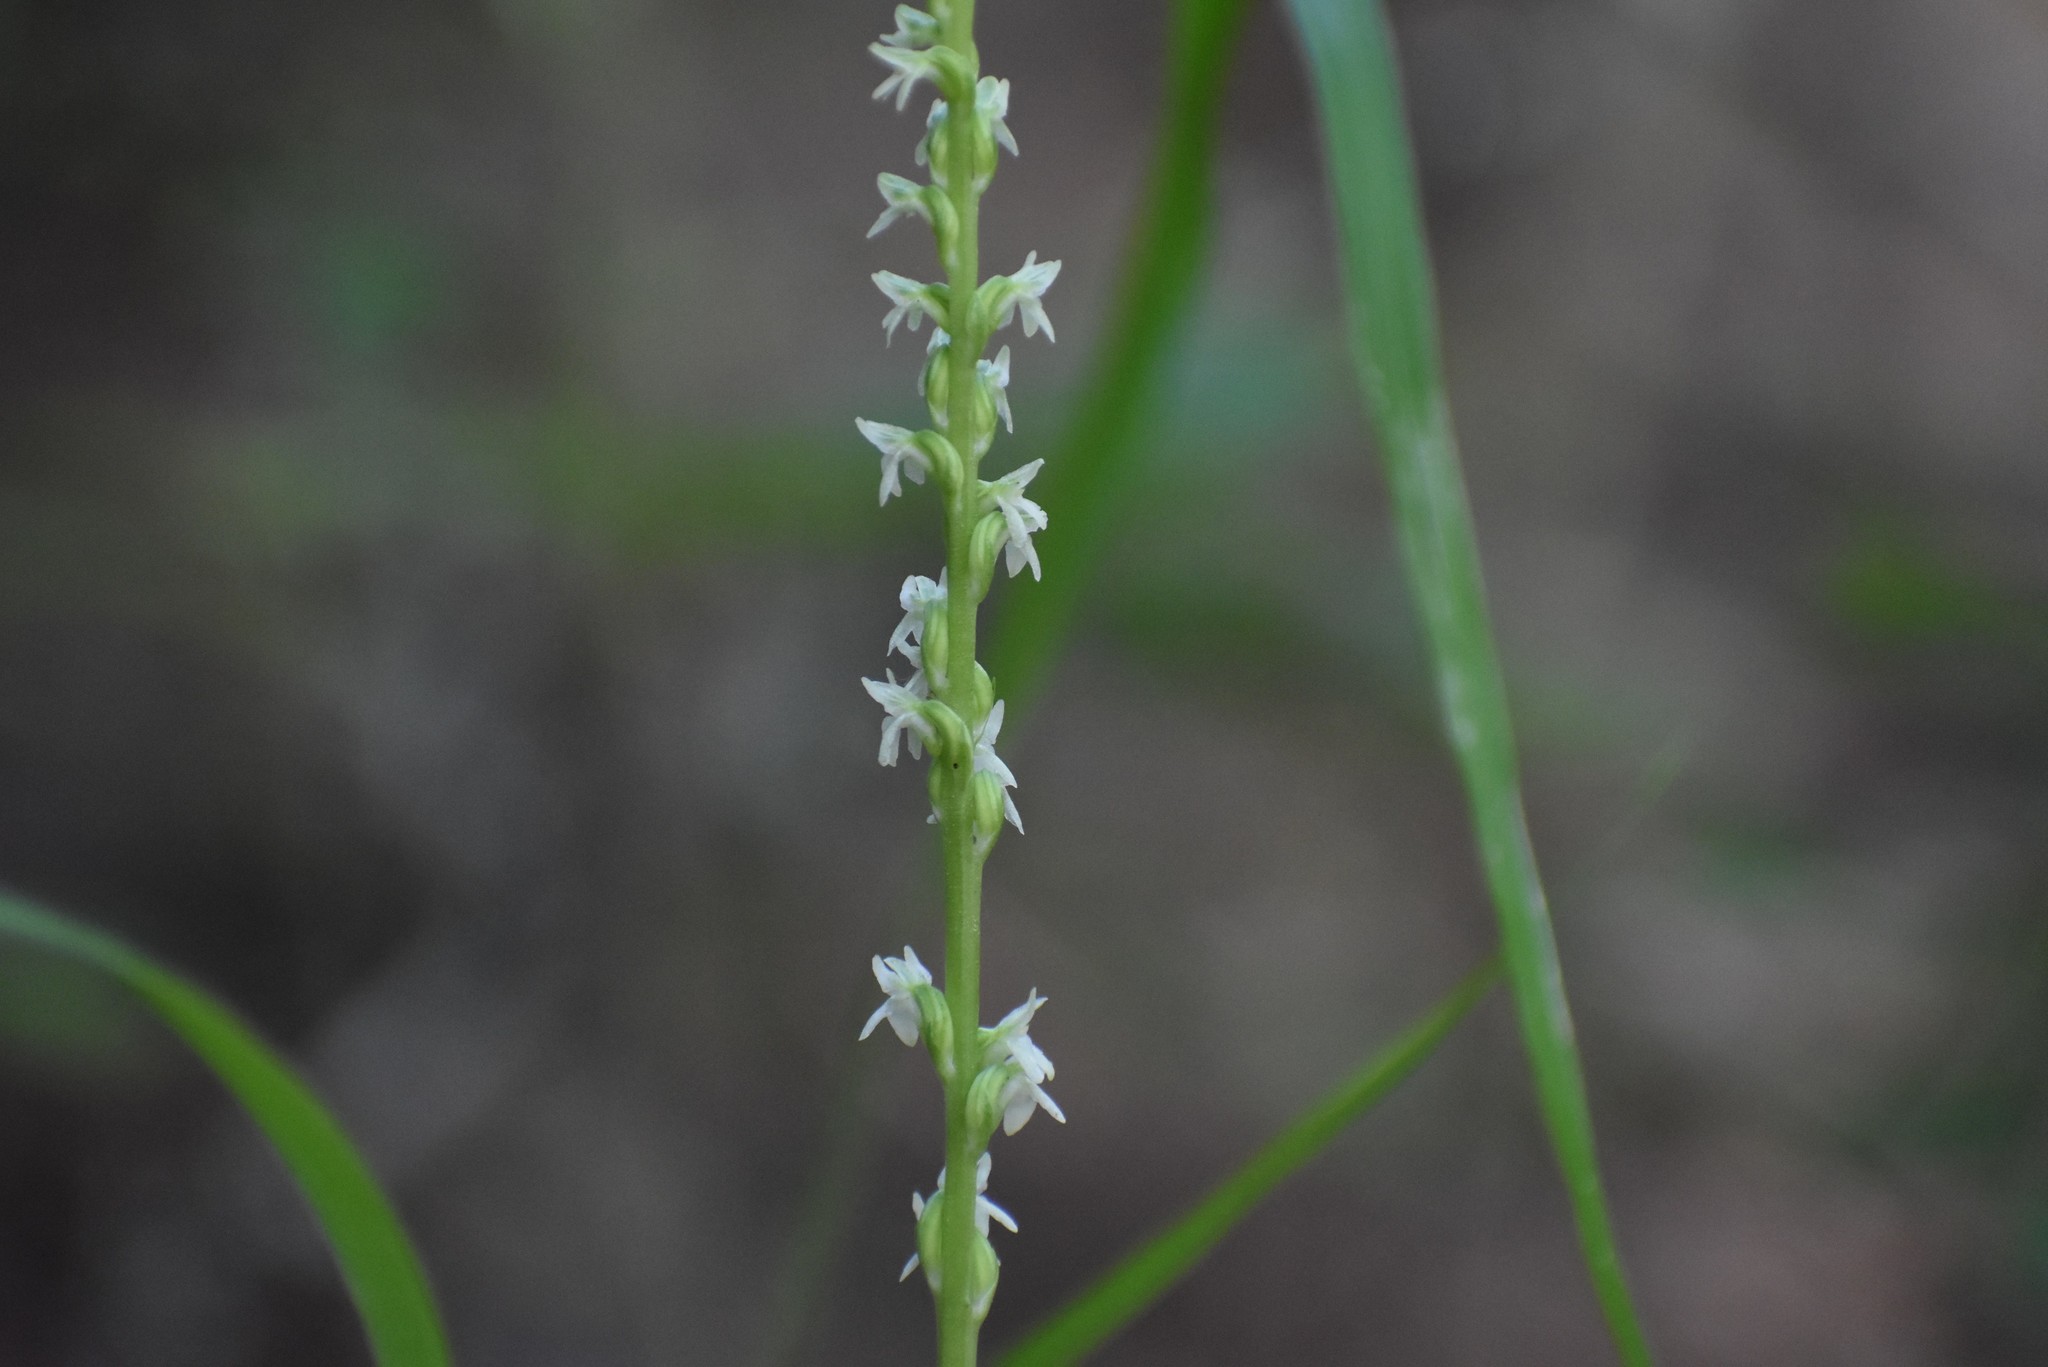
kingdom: Plantae
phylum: Tracheophyta
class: Liliopsida
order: Asparagales
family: Orchidaceae
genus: Platanthera
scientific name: Platanthera ephemerantha
